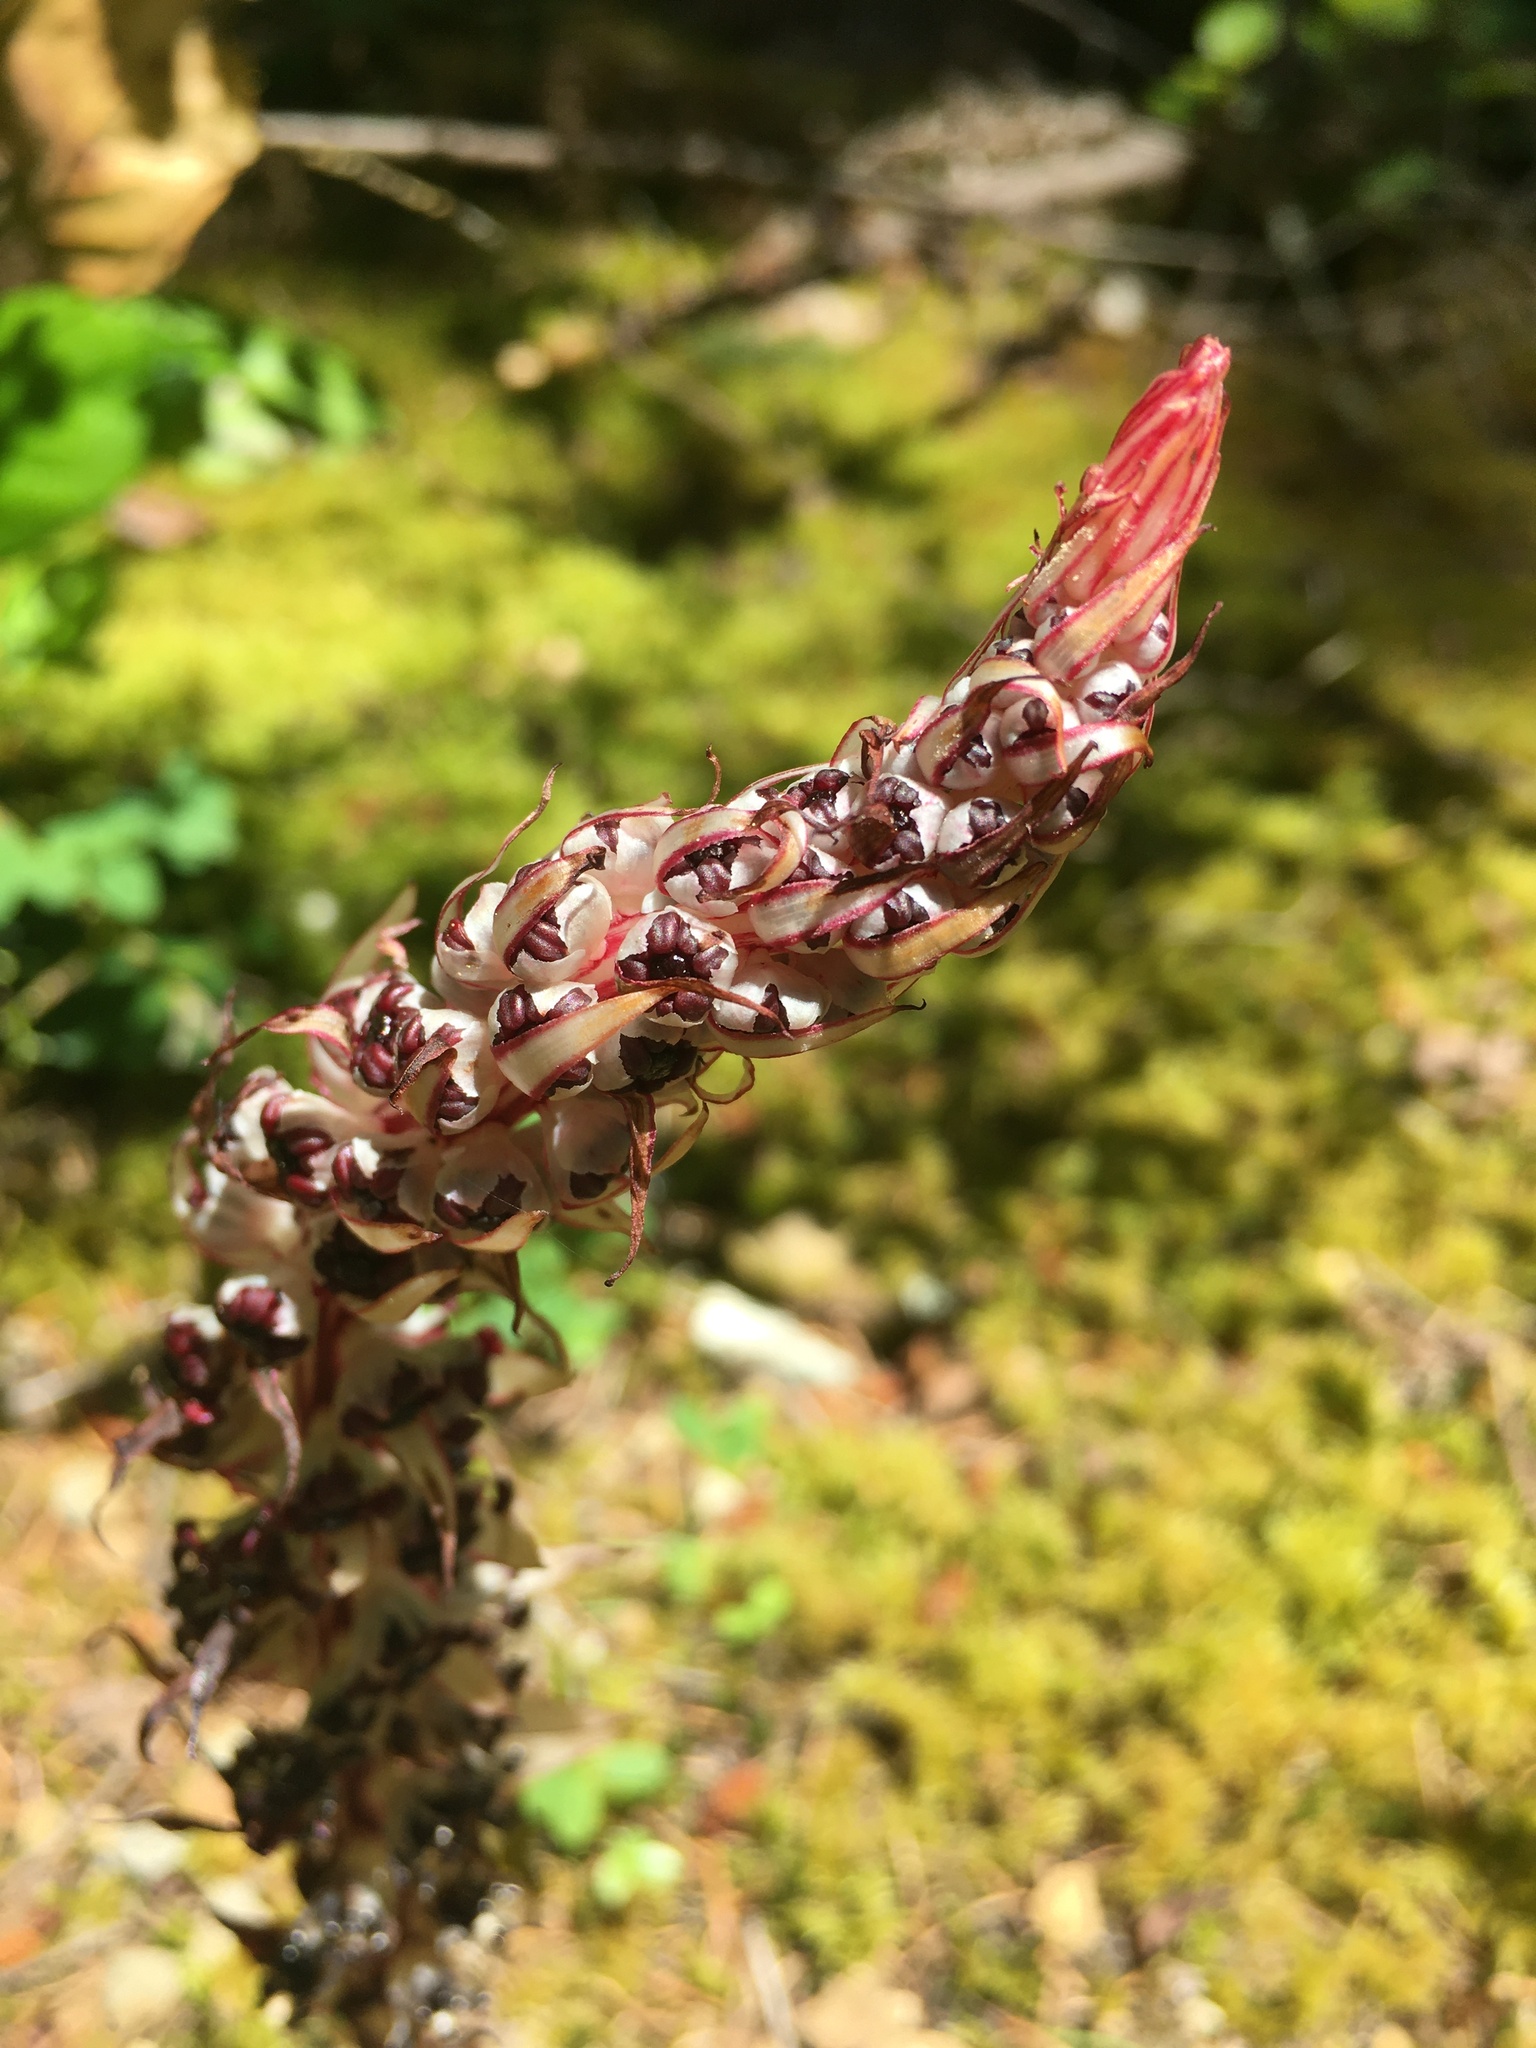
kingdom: Plantae
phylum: Tracheophyta
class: Magnoliopsida
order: Ericales
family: Ericaceae
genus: Allotropa
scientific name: Allotropa virgata
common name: Candy-striped allotropa
